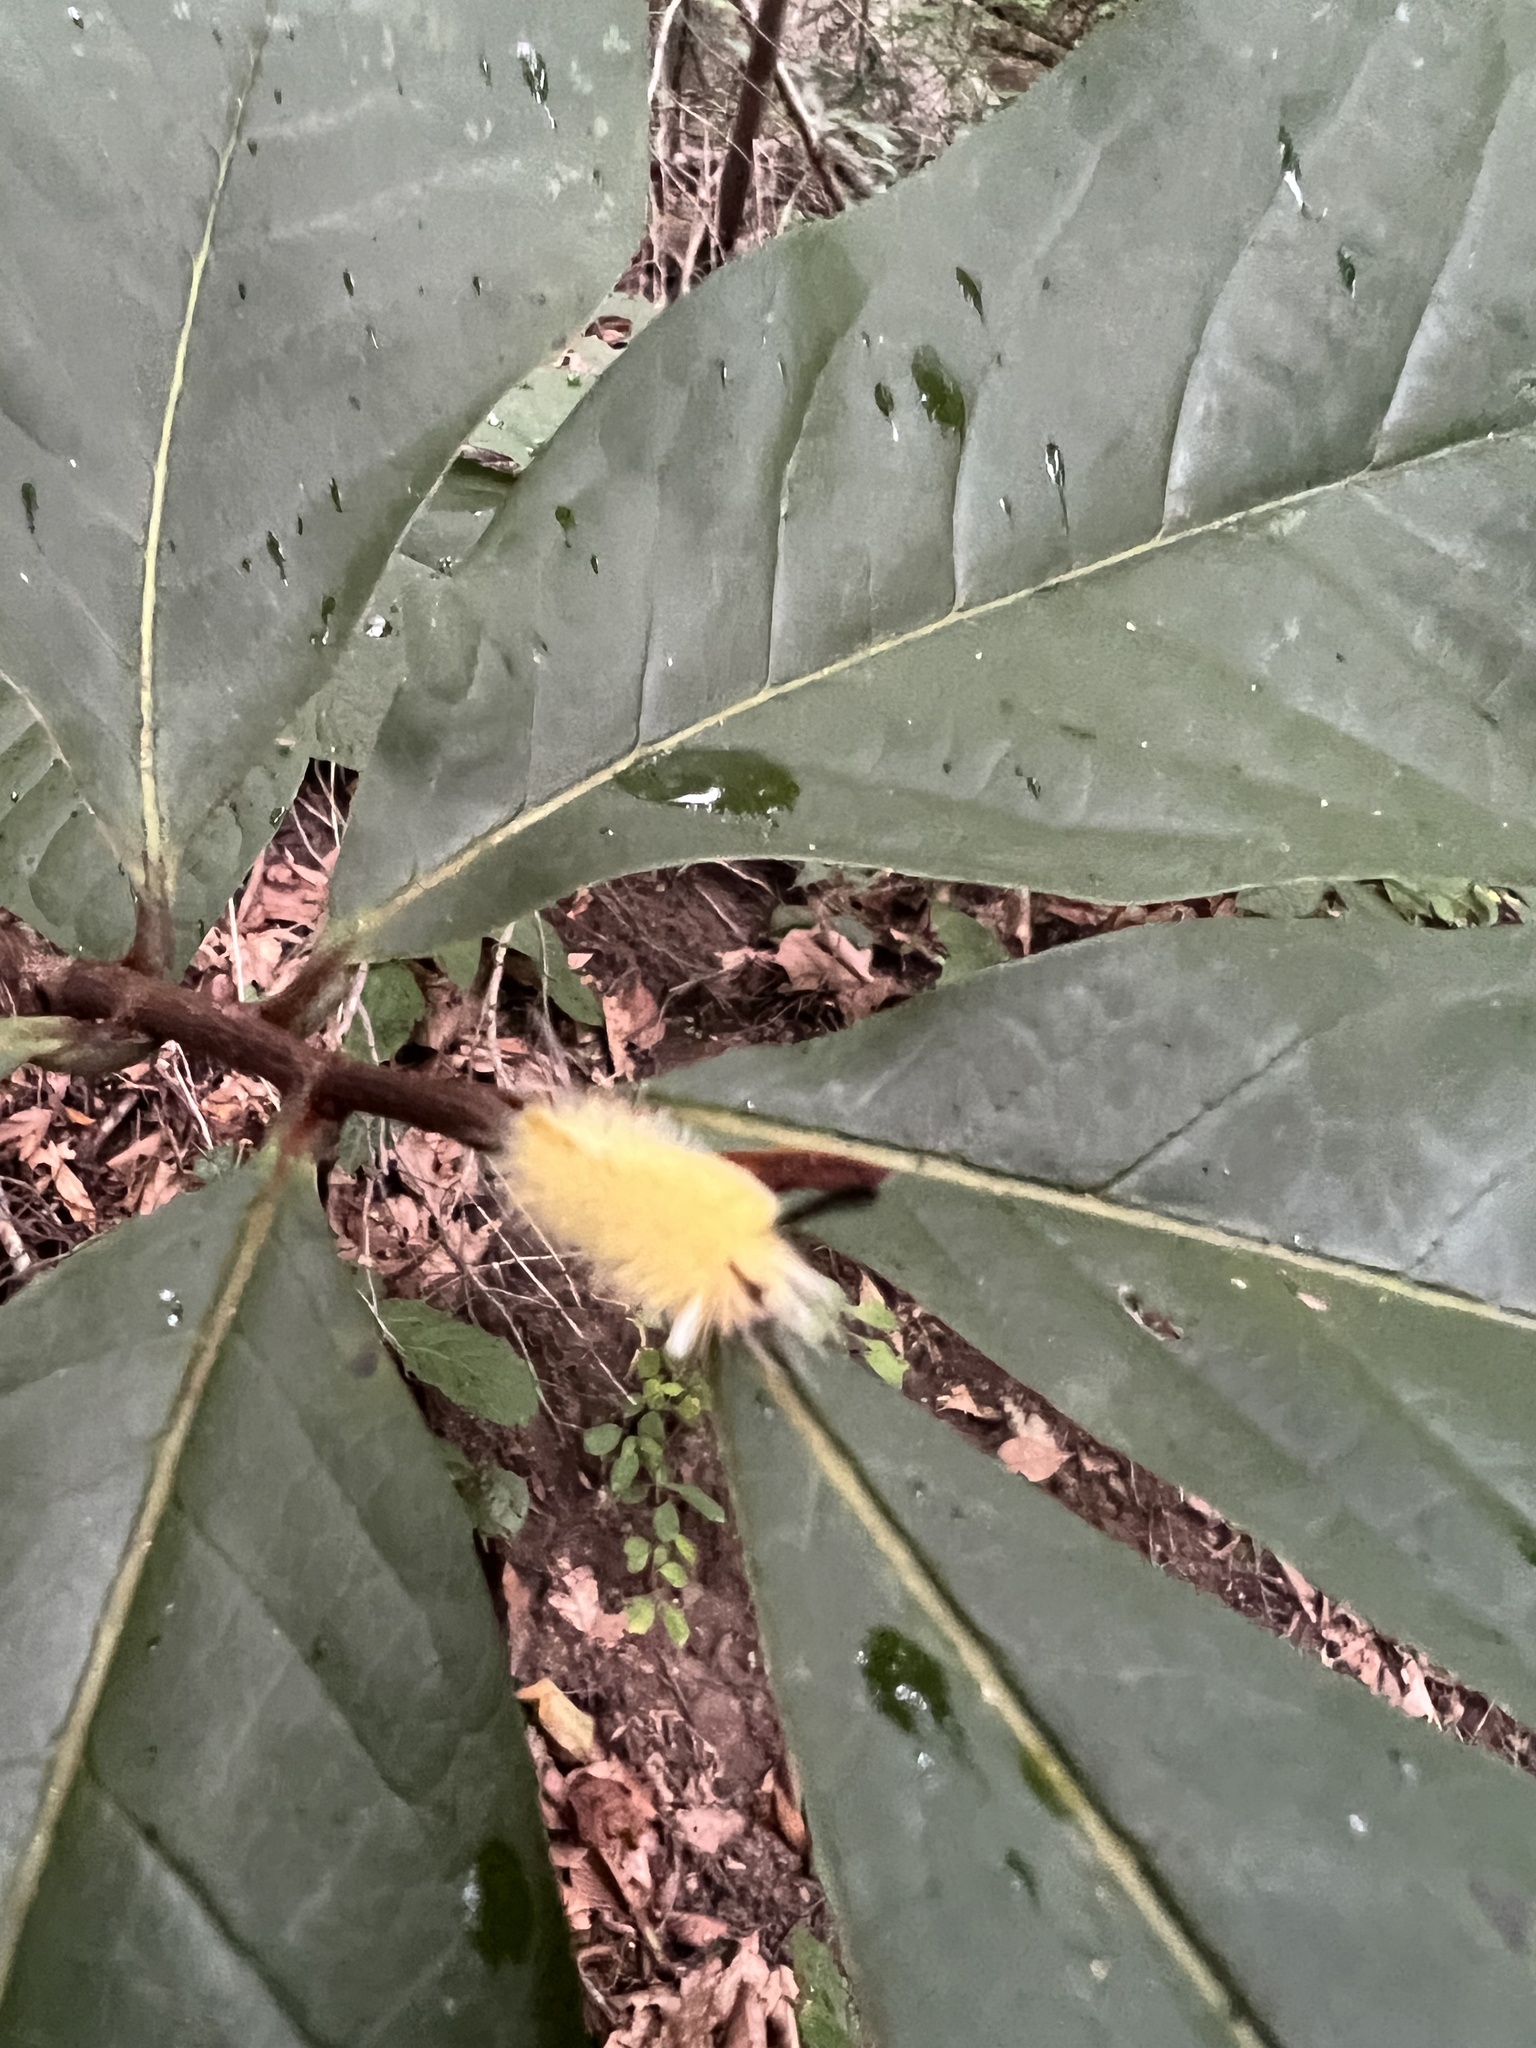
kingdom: Animalia
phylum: Arthropoda
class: Insecta
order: Lepidoptera
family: Erebidae
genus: Halysidota
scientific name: Halysidota tessellaris
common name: Banded tussock moth
